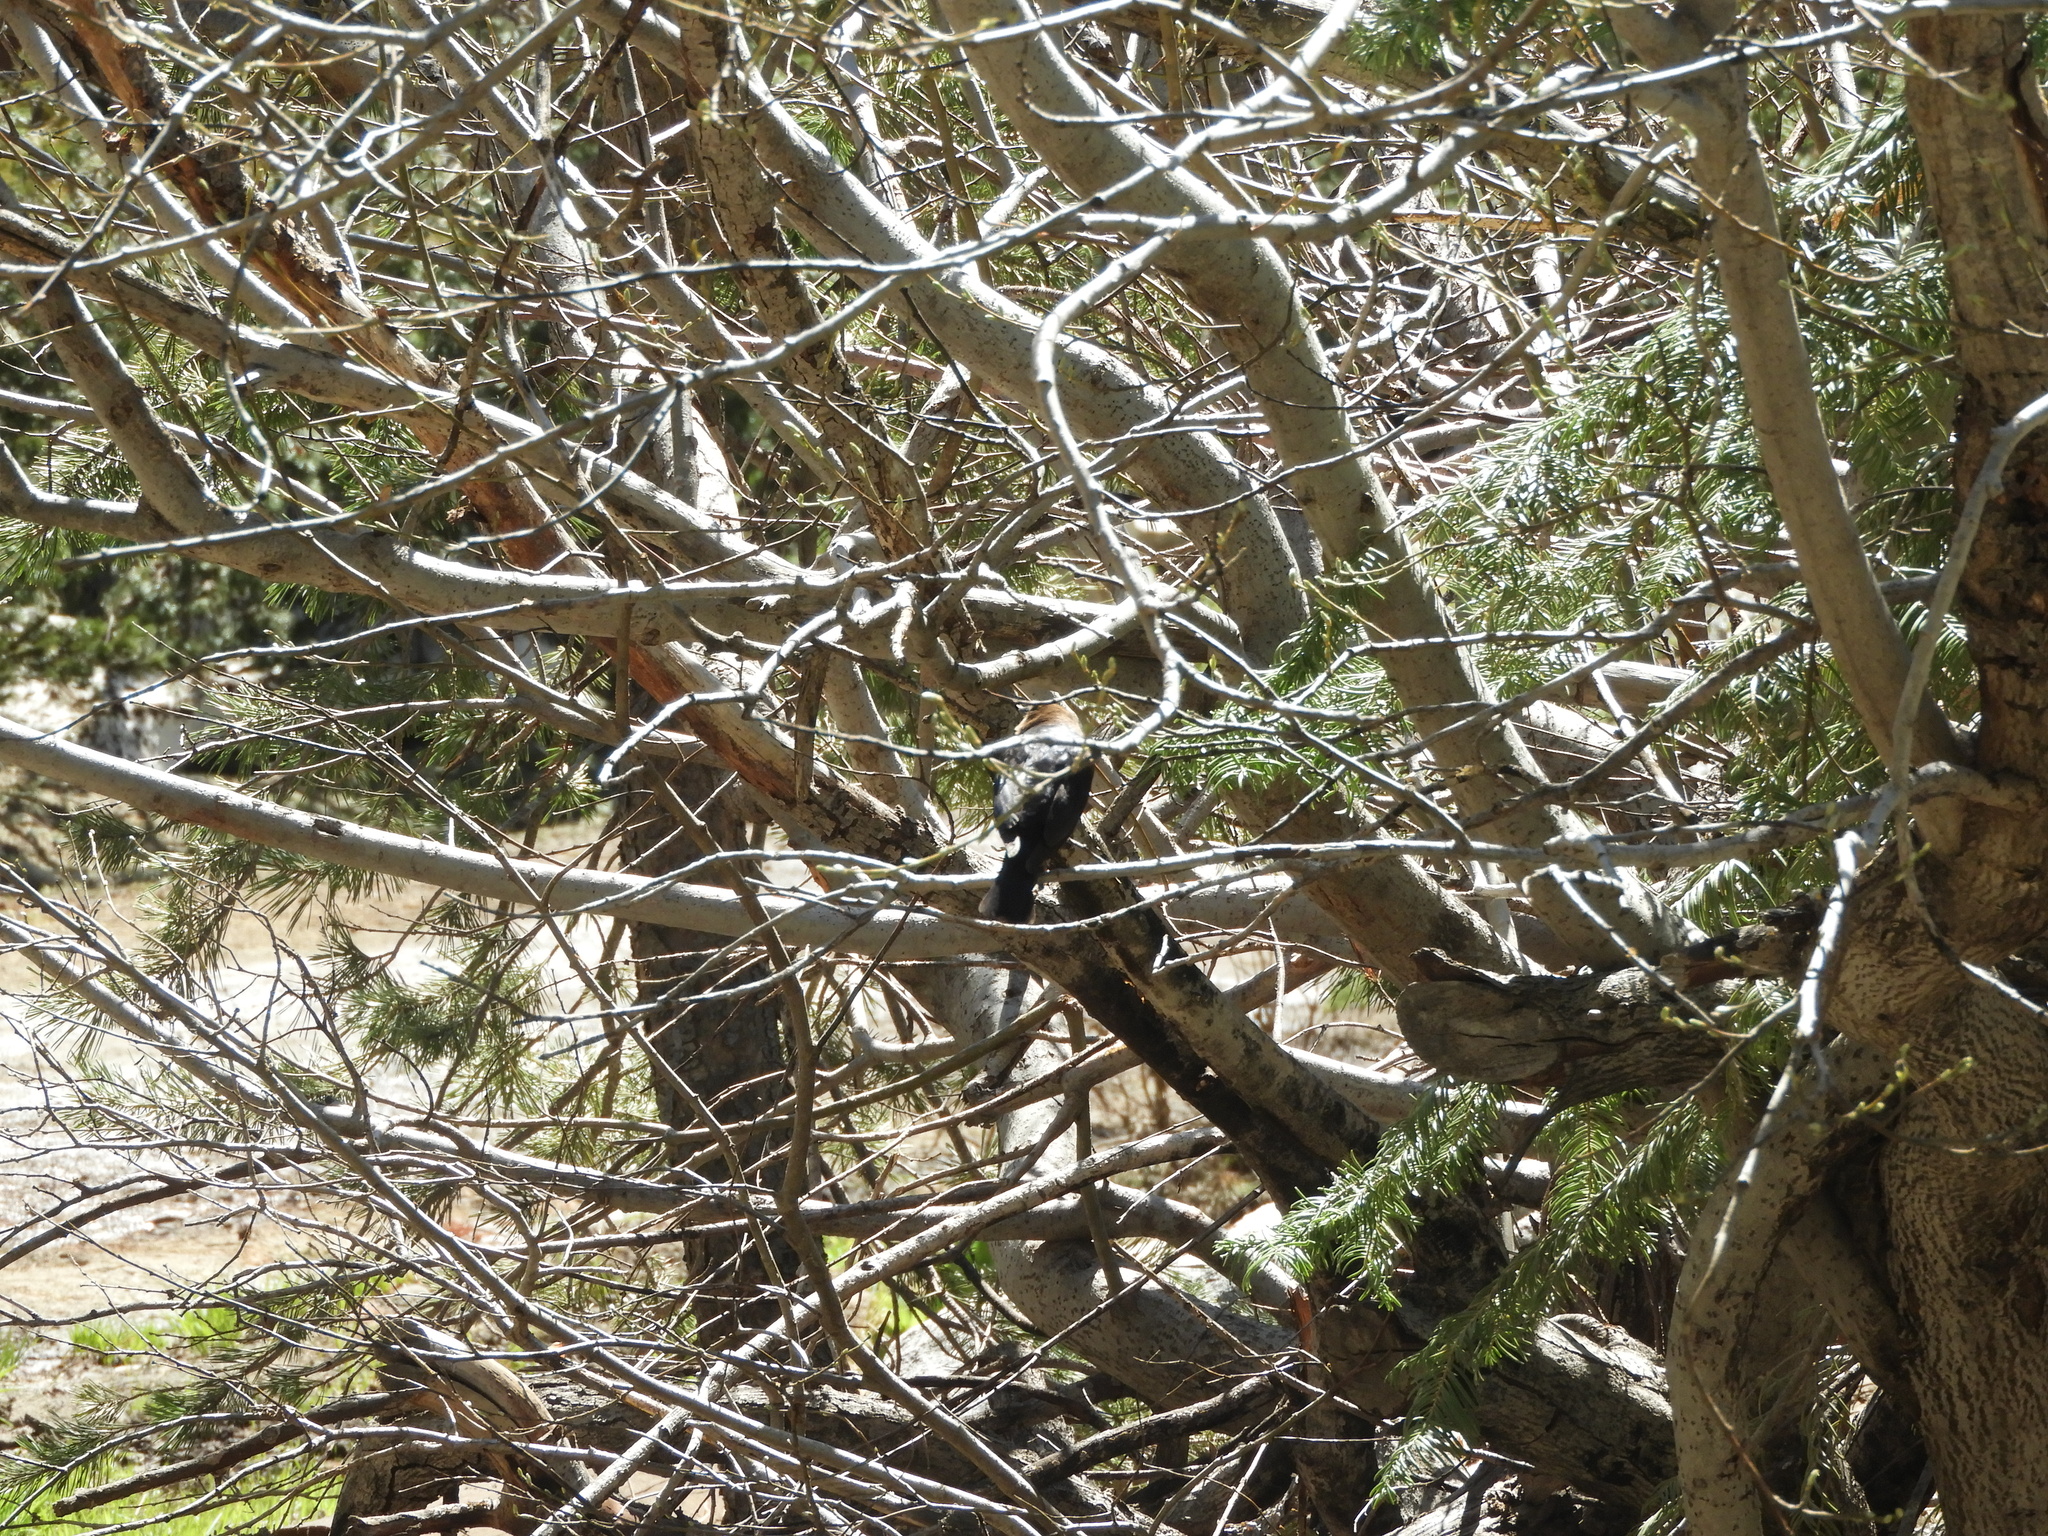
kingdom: Animalia
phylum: Chordata
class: Aves
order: Passeriformes
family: Icteridae
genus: Molothrus
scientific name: Molothrus ater
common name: Brown-headed cowbird
